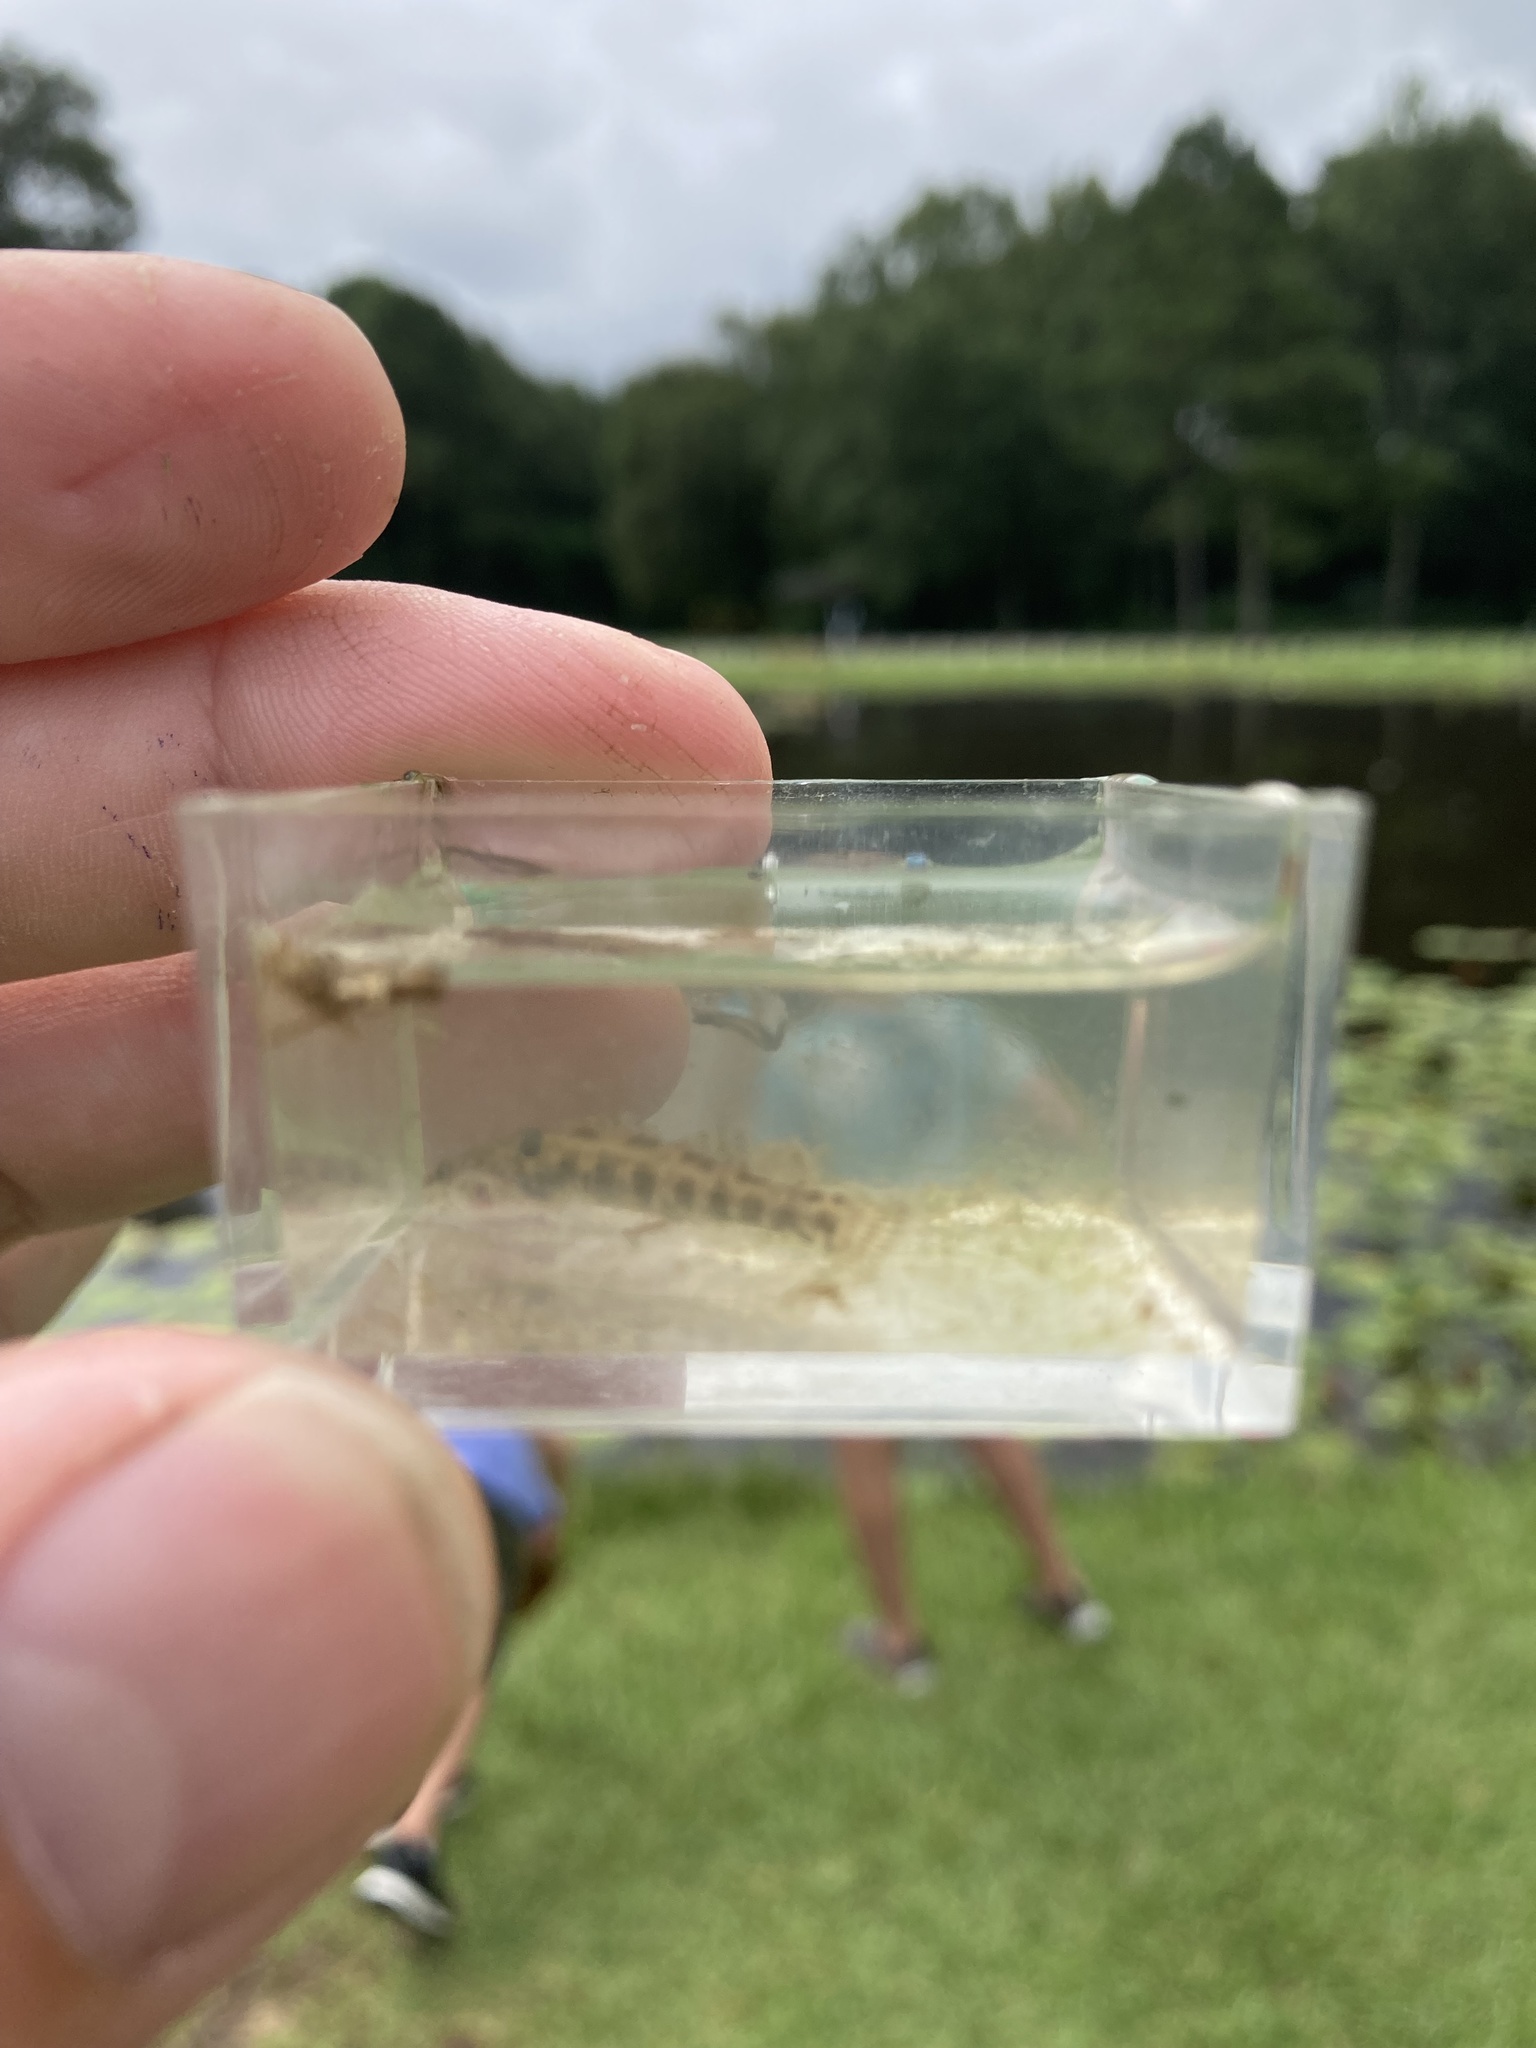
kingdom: Animalia
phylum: Chordata
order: Perciformes
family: Percidae
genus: Etheostoma
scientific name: Etheostoma fusiforme
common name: Swamp darter
